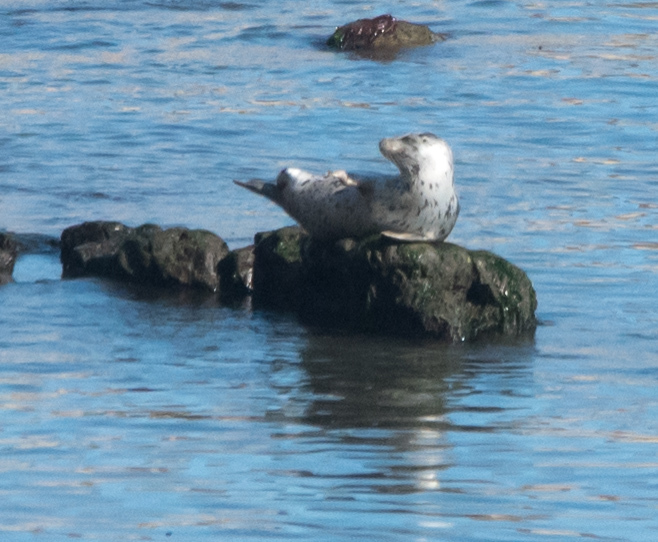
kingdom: Animalia
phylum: Chordata
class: Mammalia
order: Carnivora
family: Phocidae
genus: Phoca
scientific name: Phoca vitulina
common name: Harbor seal
